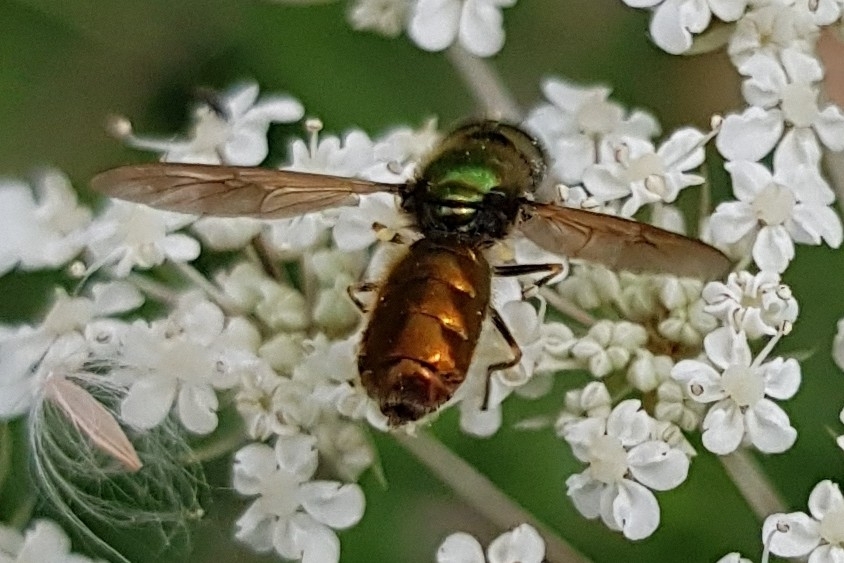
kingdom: Animalia
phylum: Arthropoda
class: Insecta
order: Diptera
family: Stratiomyidae
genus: Chloromyia
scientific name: Chloromyia formosa
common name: Soldier fly
